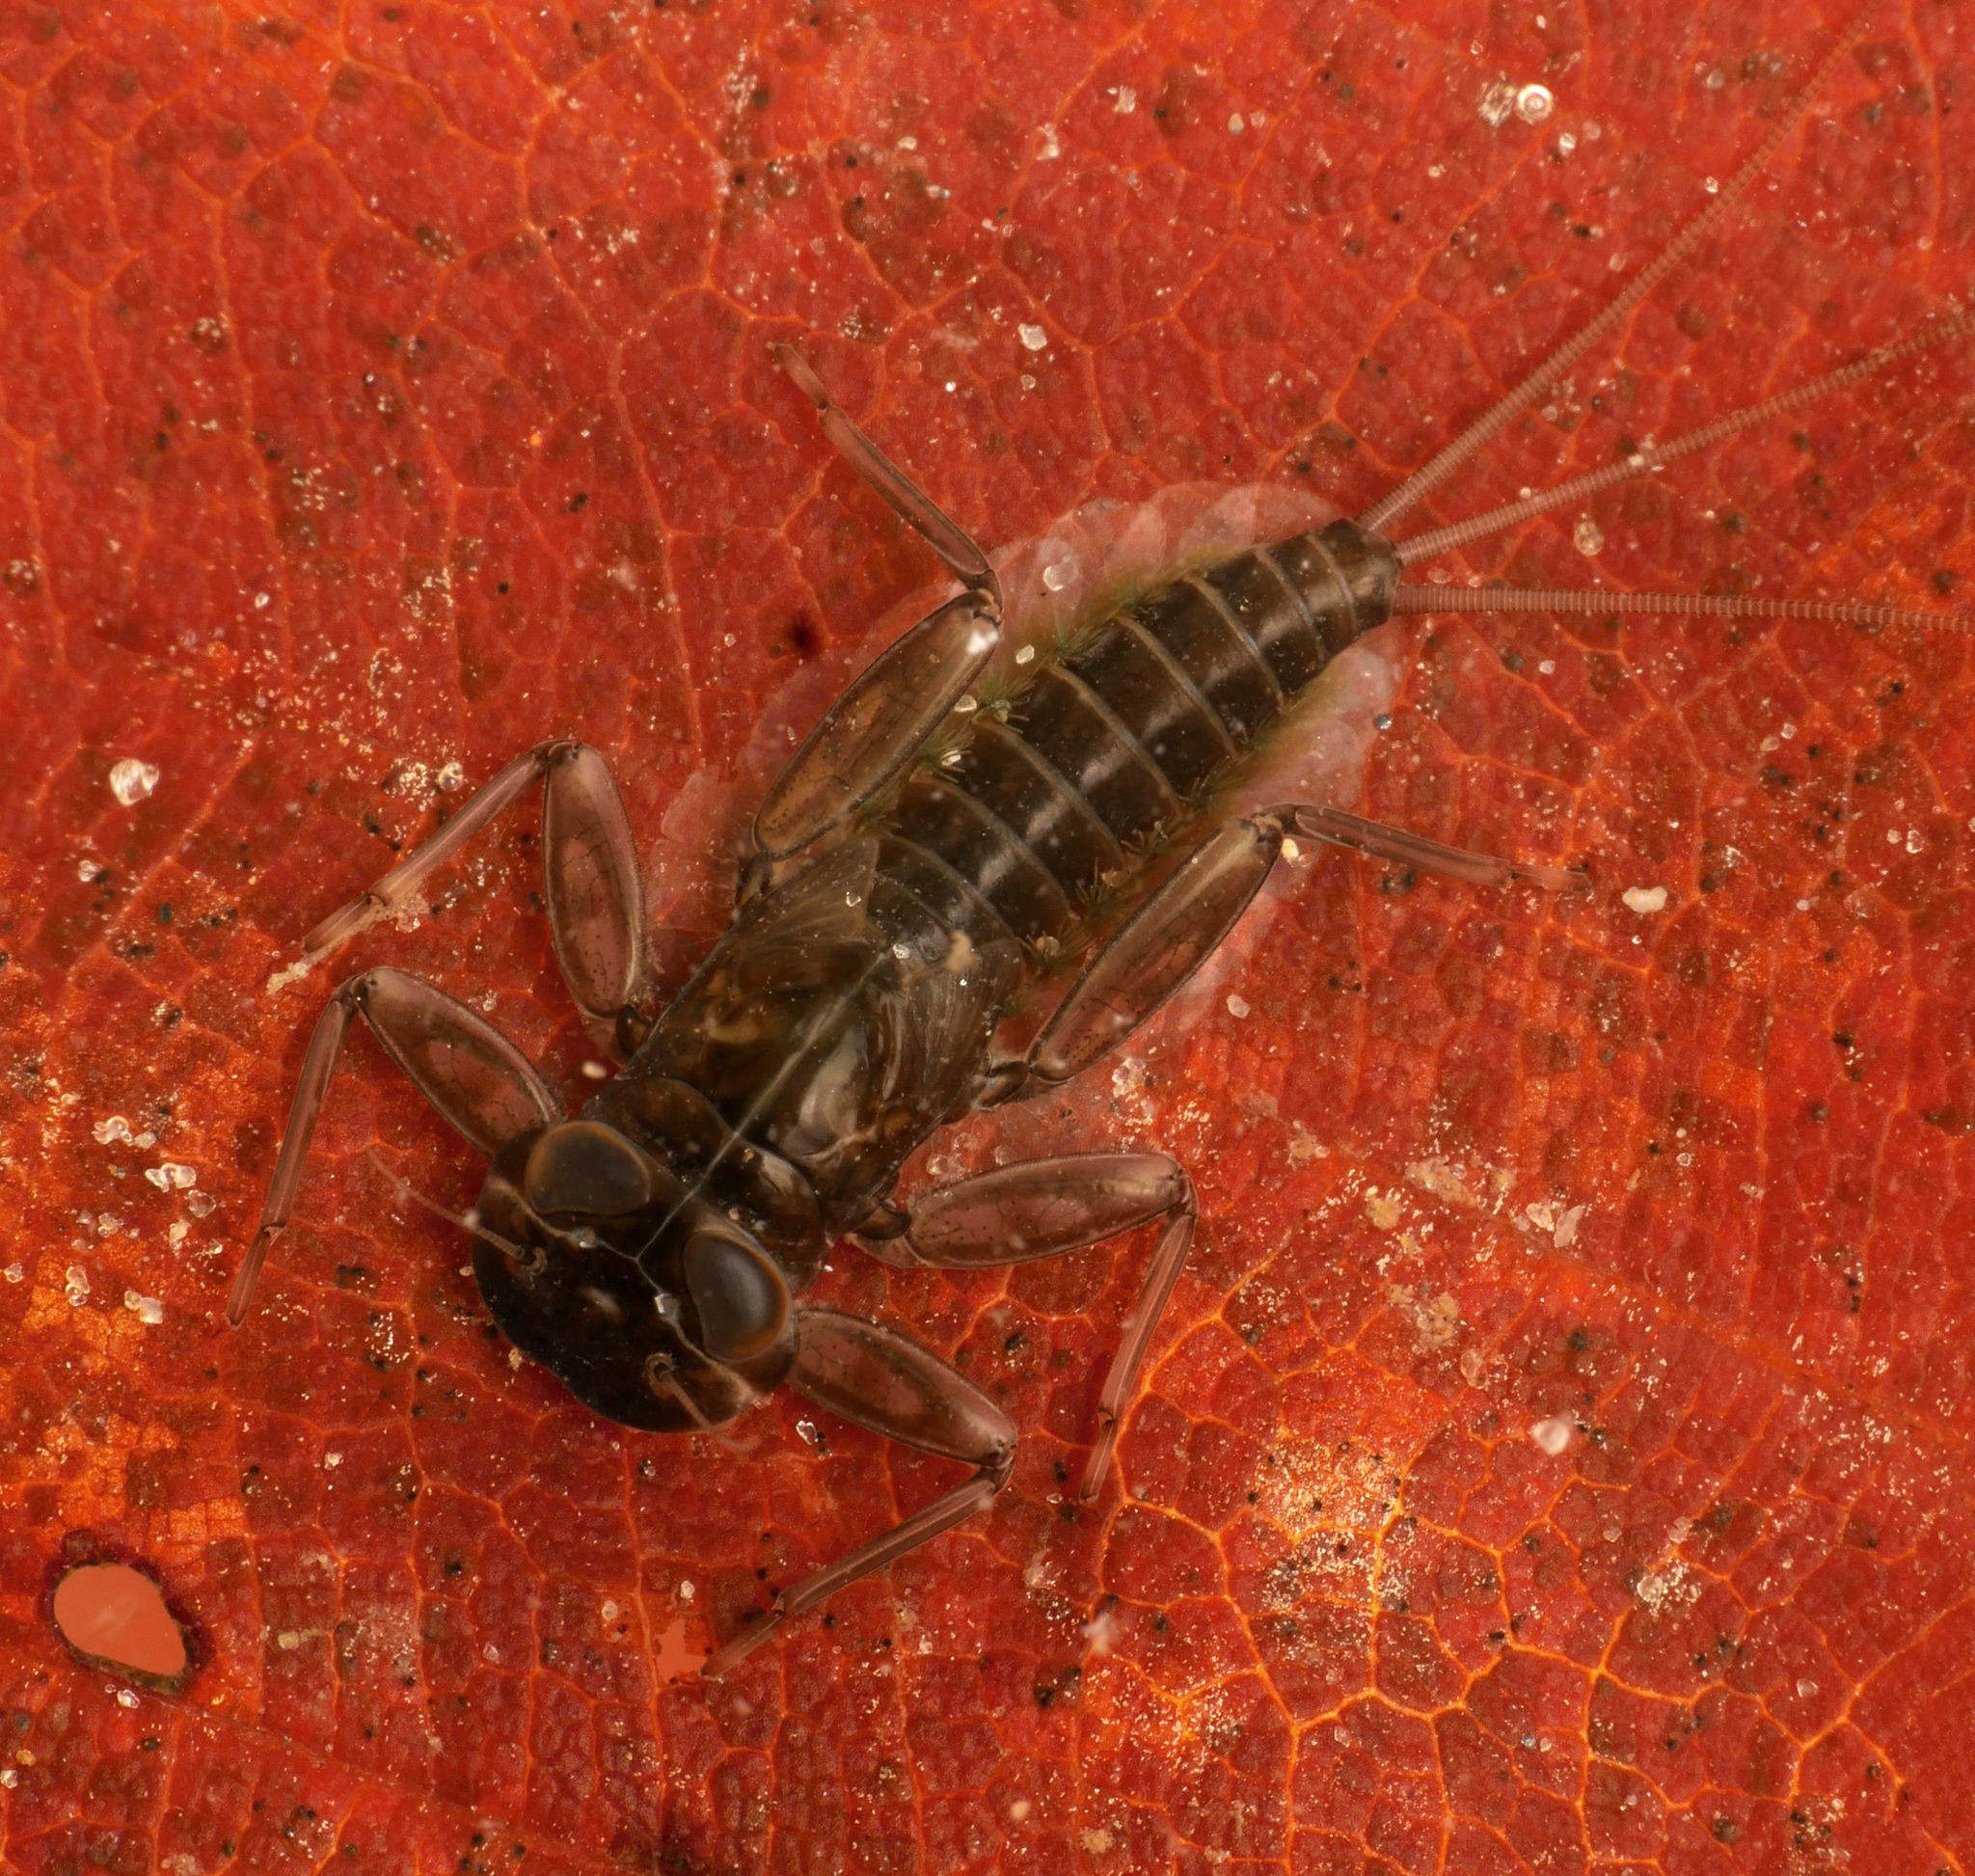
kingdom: Animalia
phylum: Arthropoda
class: Insecta
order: Ephemeroptera
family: Heptageniidae
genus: Rhithrogena
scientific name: Rhithrogena germanica
